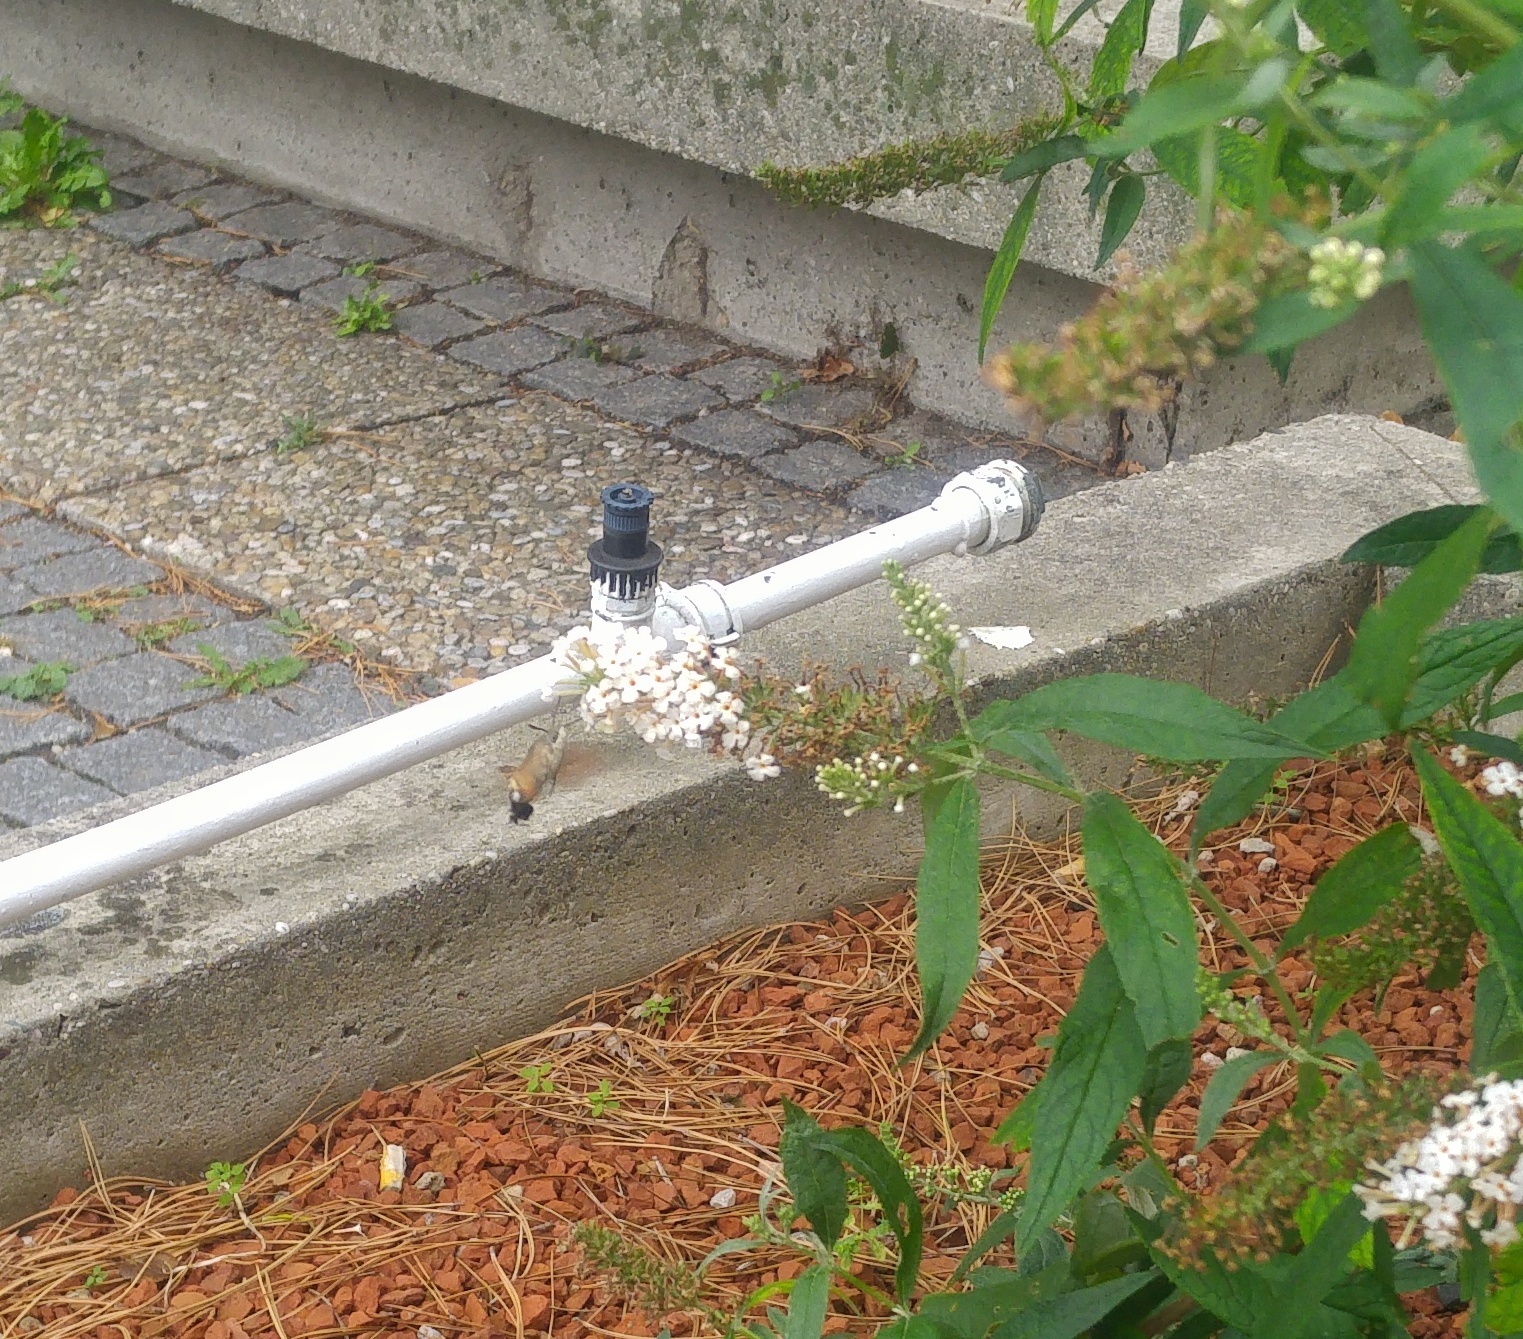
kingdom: Animalia
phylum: Arthropoda
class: Insecta
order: Lepidoptera
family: Sphingidae
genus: Macroglossum
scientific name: Macroglossum stellatarum
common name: Humming-bird hawk-moth
